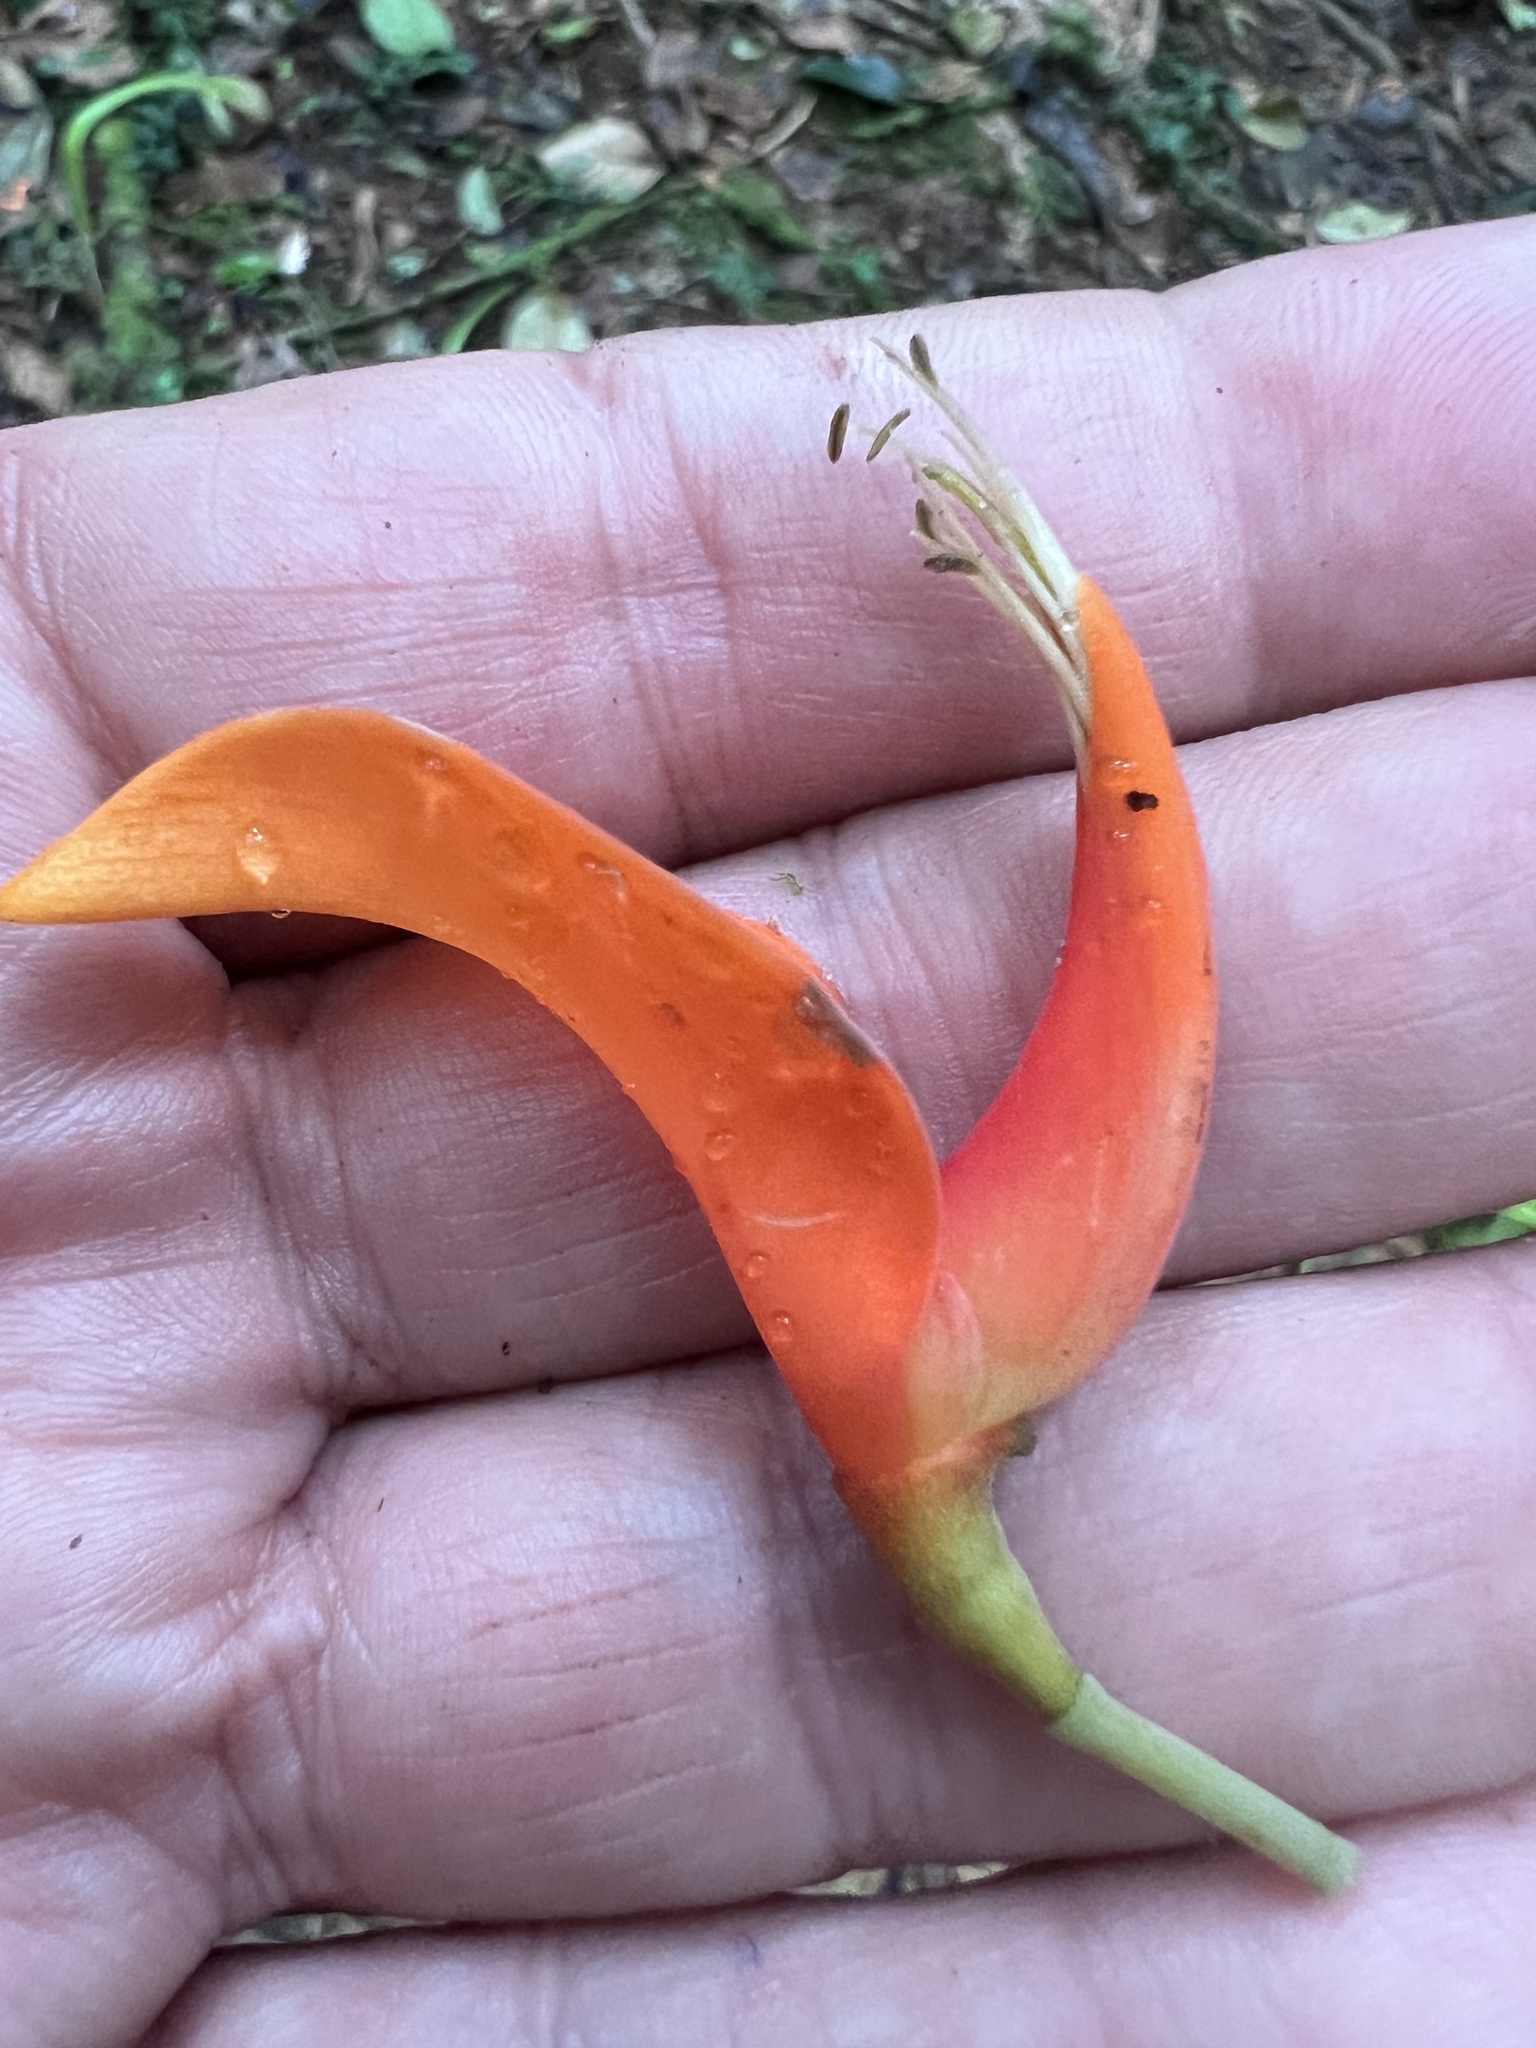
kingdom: Plantae
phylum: Tracheophyta
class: Magnoliopsida
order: Fabales
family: Fabaceae
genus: Erythrina
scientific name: Erythrina poeppigiana
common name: Coral tree
